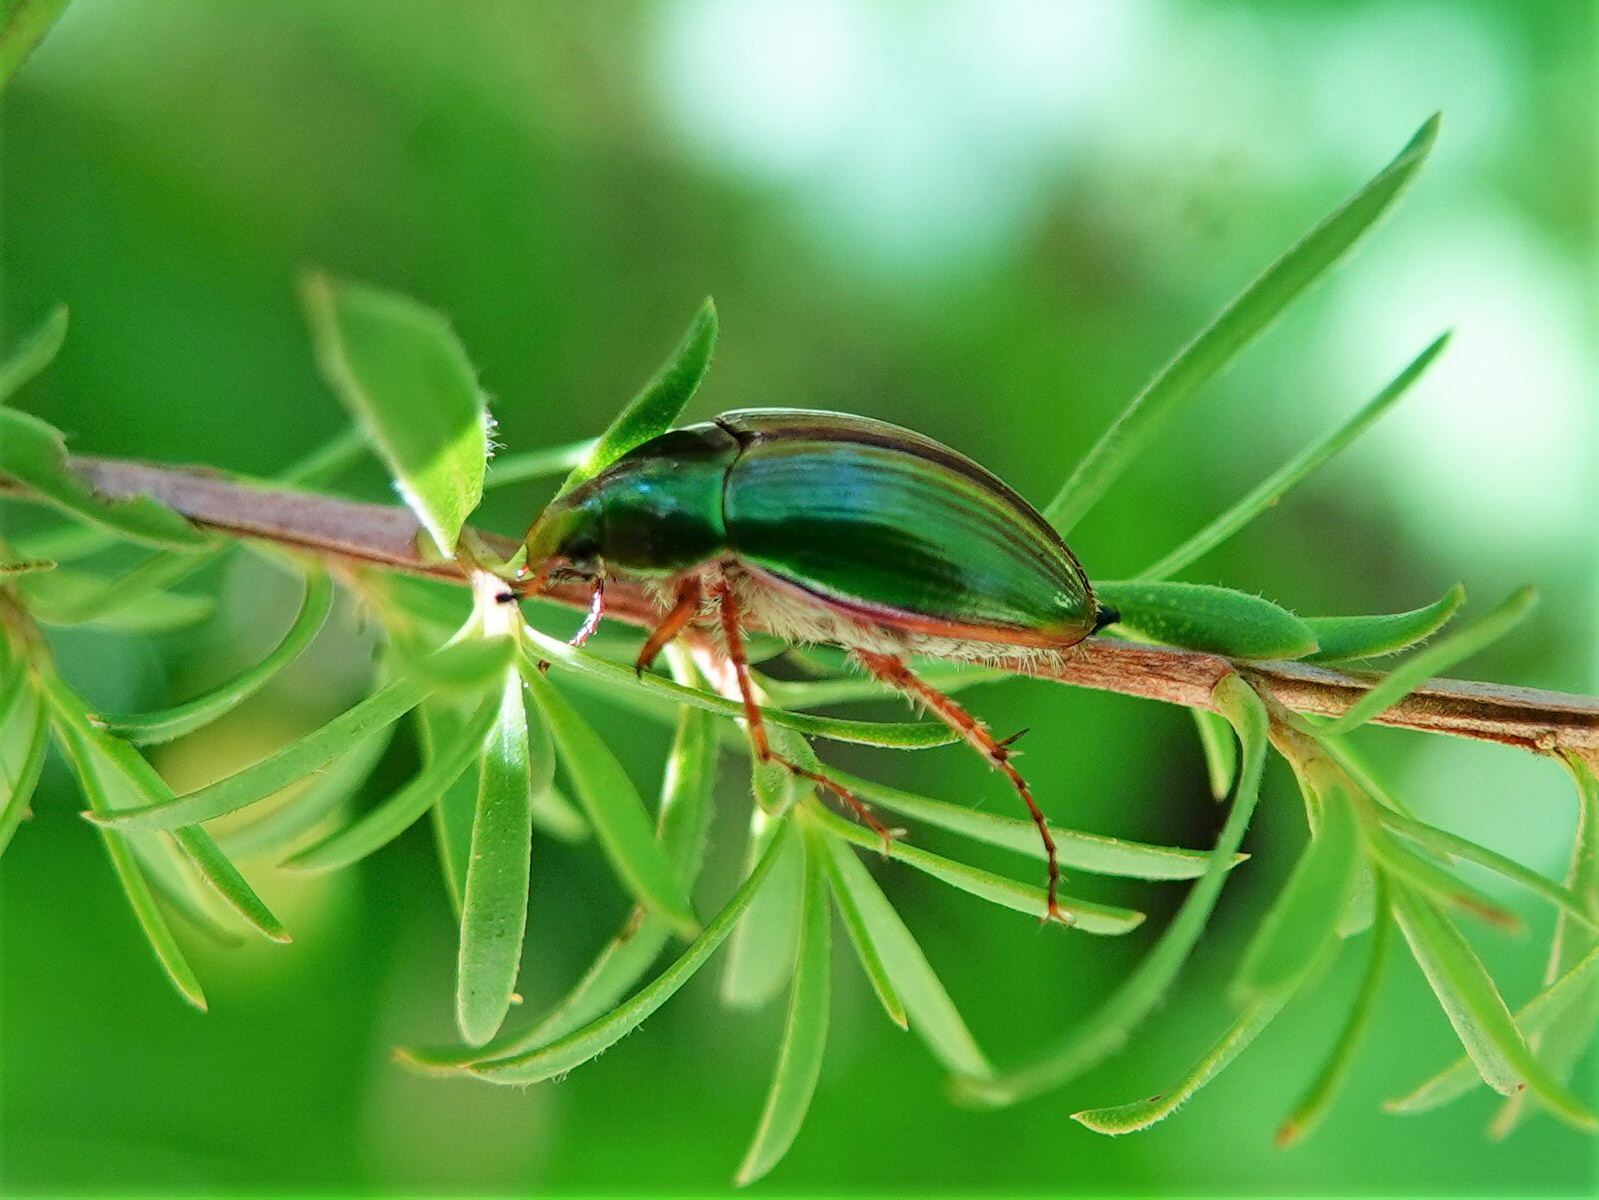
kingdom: Animalia
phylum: Arthropoda
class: Insecta
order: Coleoptera
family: Scarabaeidae
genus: Pyronota
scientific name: Pyronota festiva
